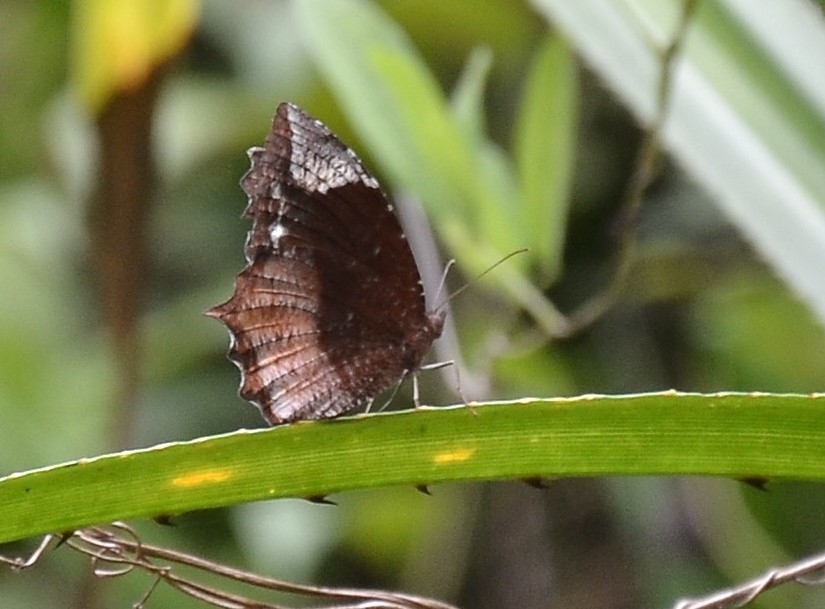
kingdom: Animalia
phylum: Arthropoda
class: Insecta
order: Lepidoptera
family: Nymphalidae
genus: Elymnias
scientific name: Elymnias caudata
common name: Tailed palmfly
